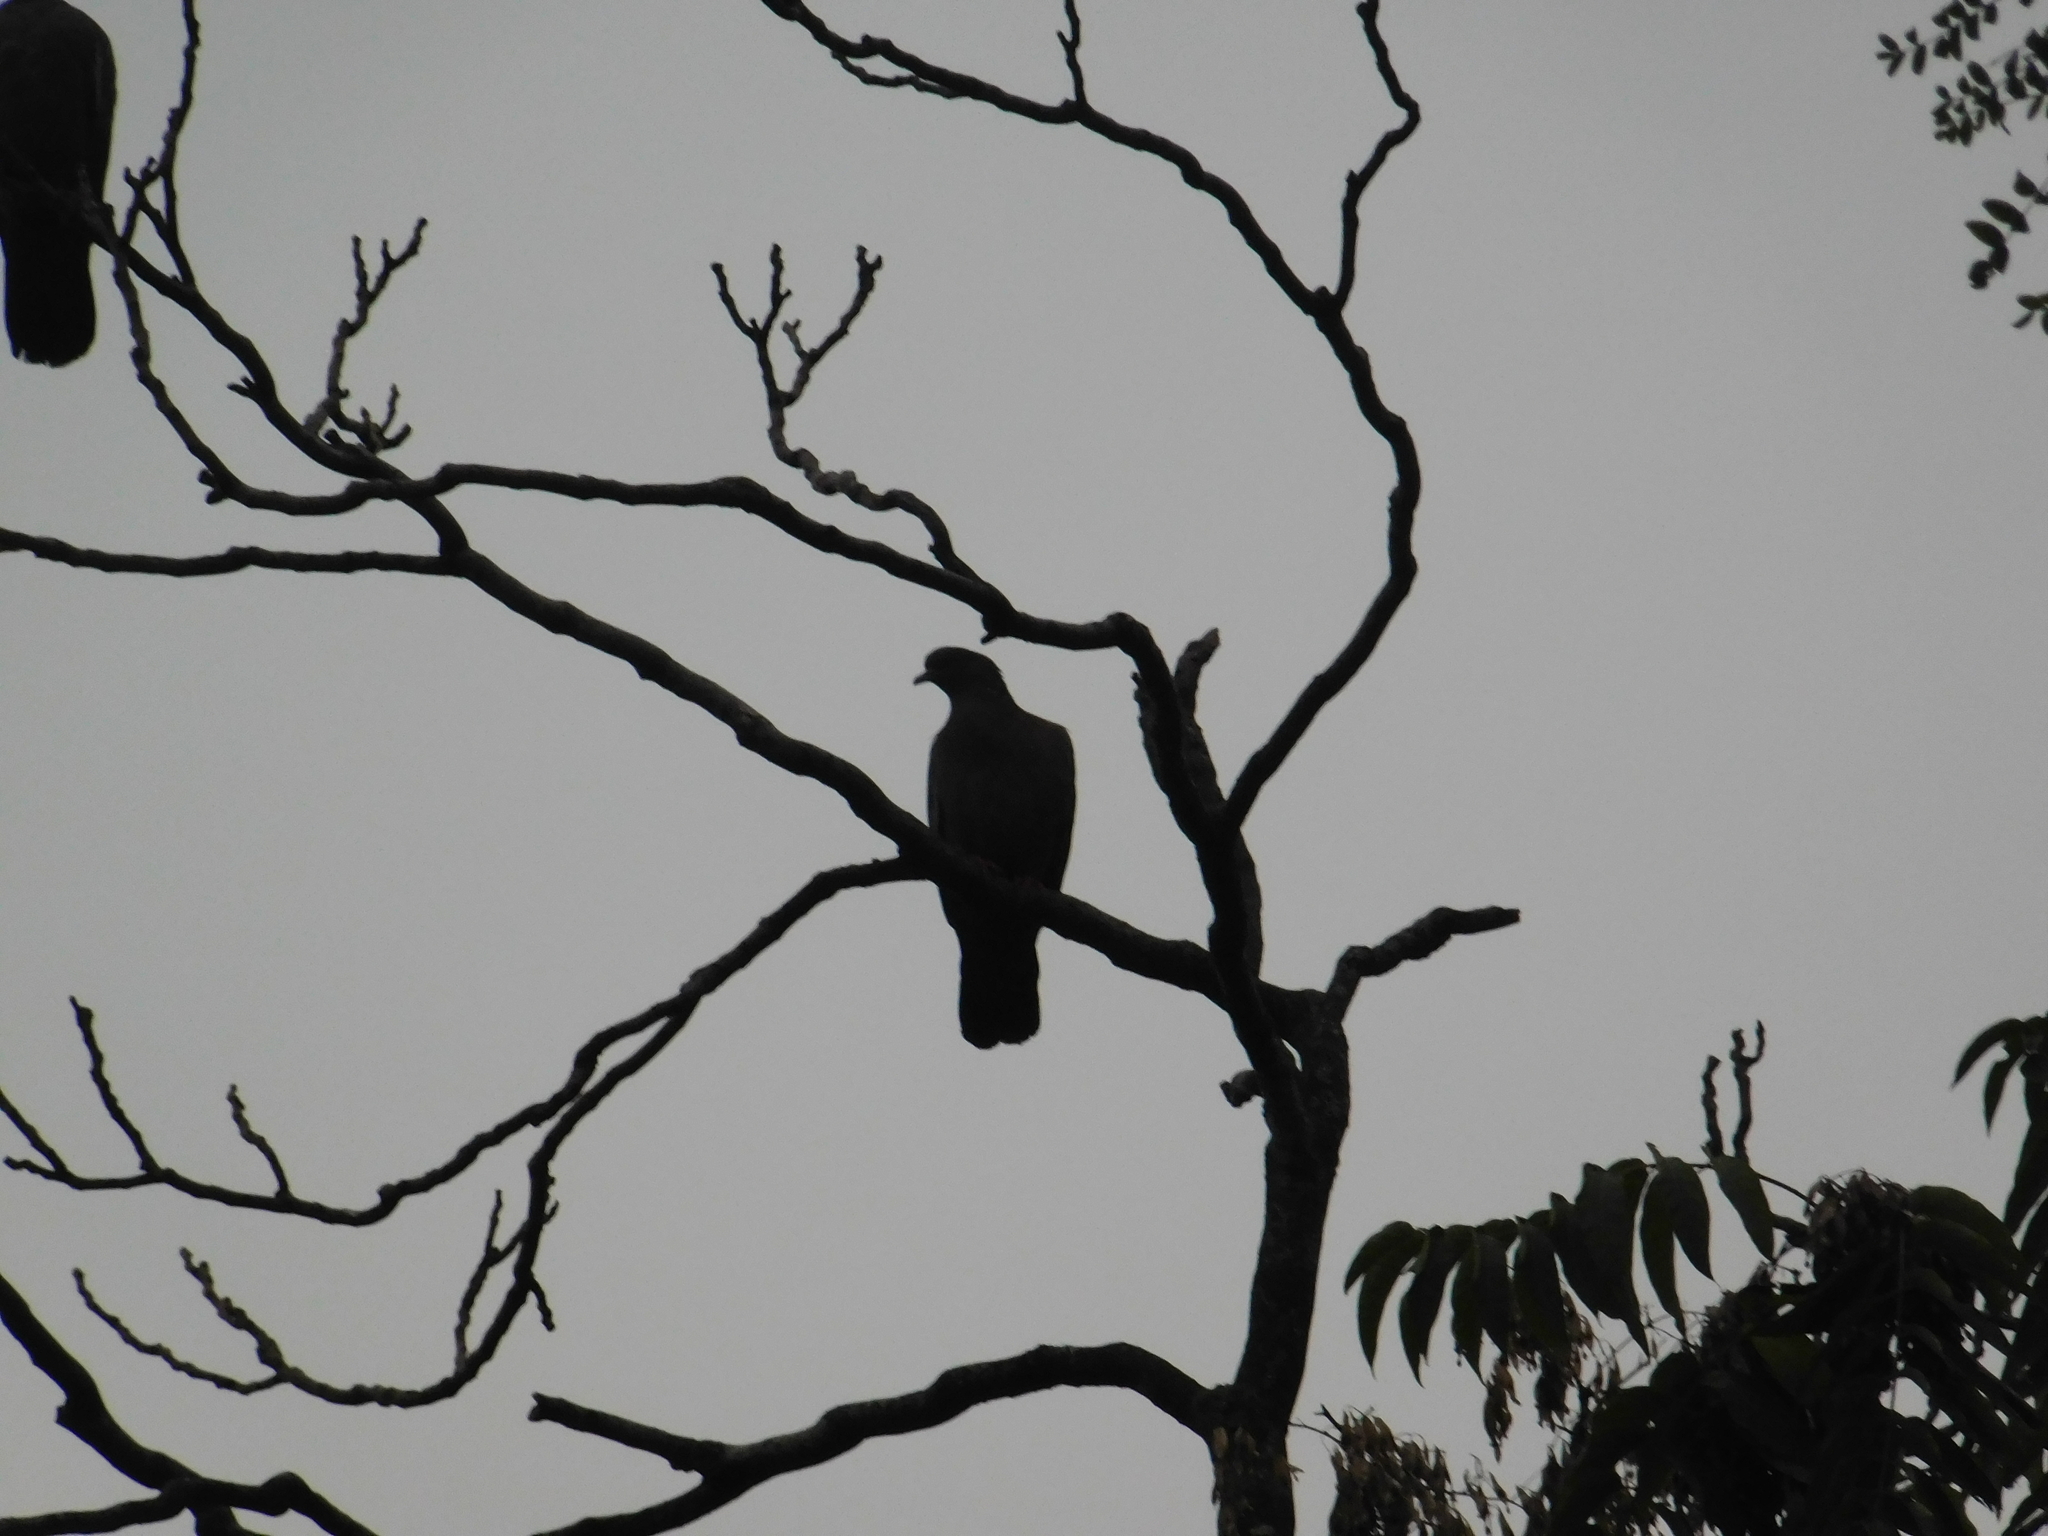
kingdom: Animalia
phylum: Chordata
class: Aves
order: Columbiformes
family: Columbidae
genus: Patagioenas
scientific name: Patagioenas picazuro
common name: Picazuro pigeon
